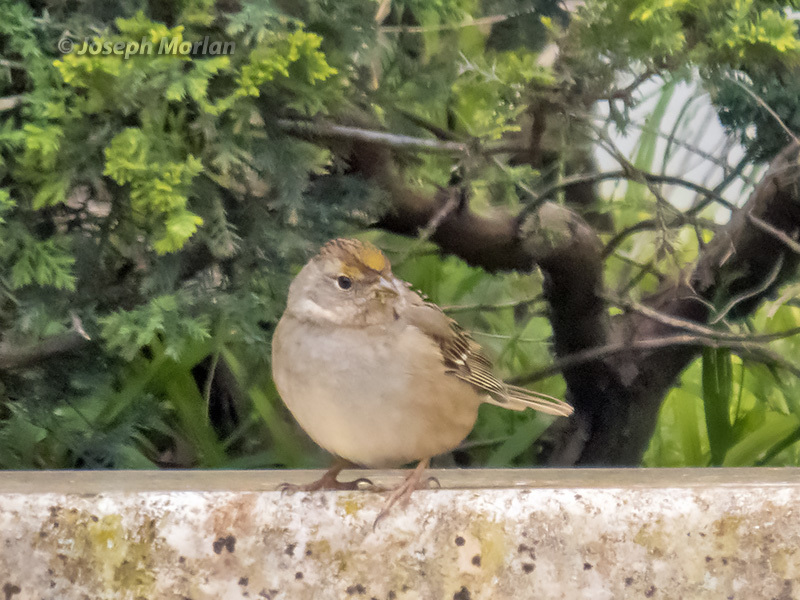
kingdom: Animalia
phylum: Chordata
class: Aves
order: Passeriformes
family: Passerellidae
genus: Zonotrichia
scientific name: Zonotrichia atricapilla
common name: Golden-crowned sparrow
